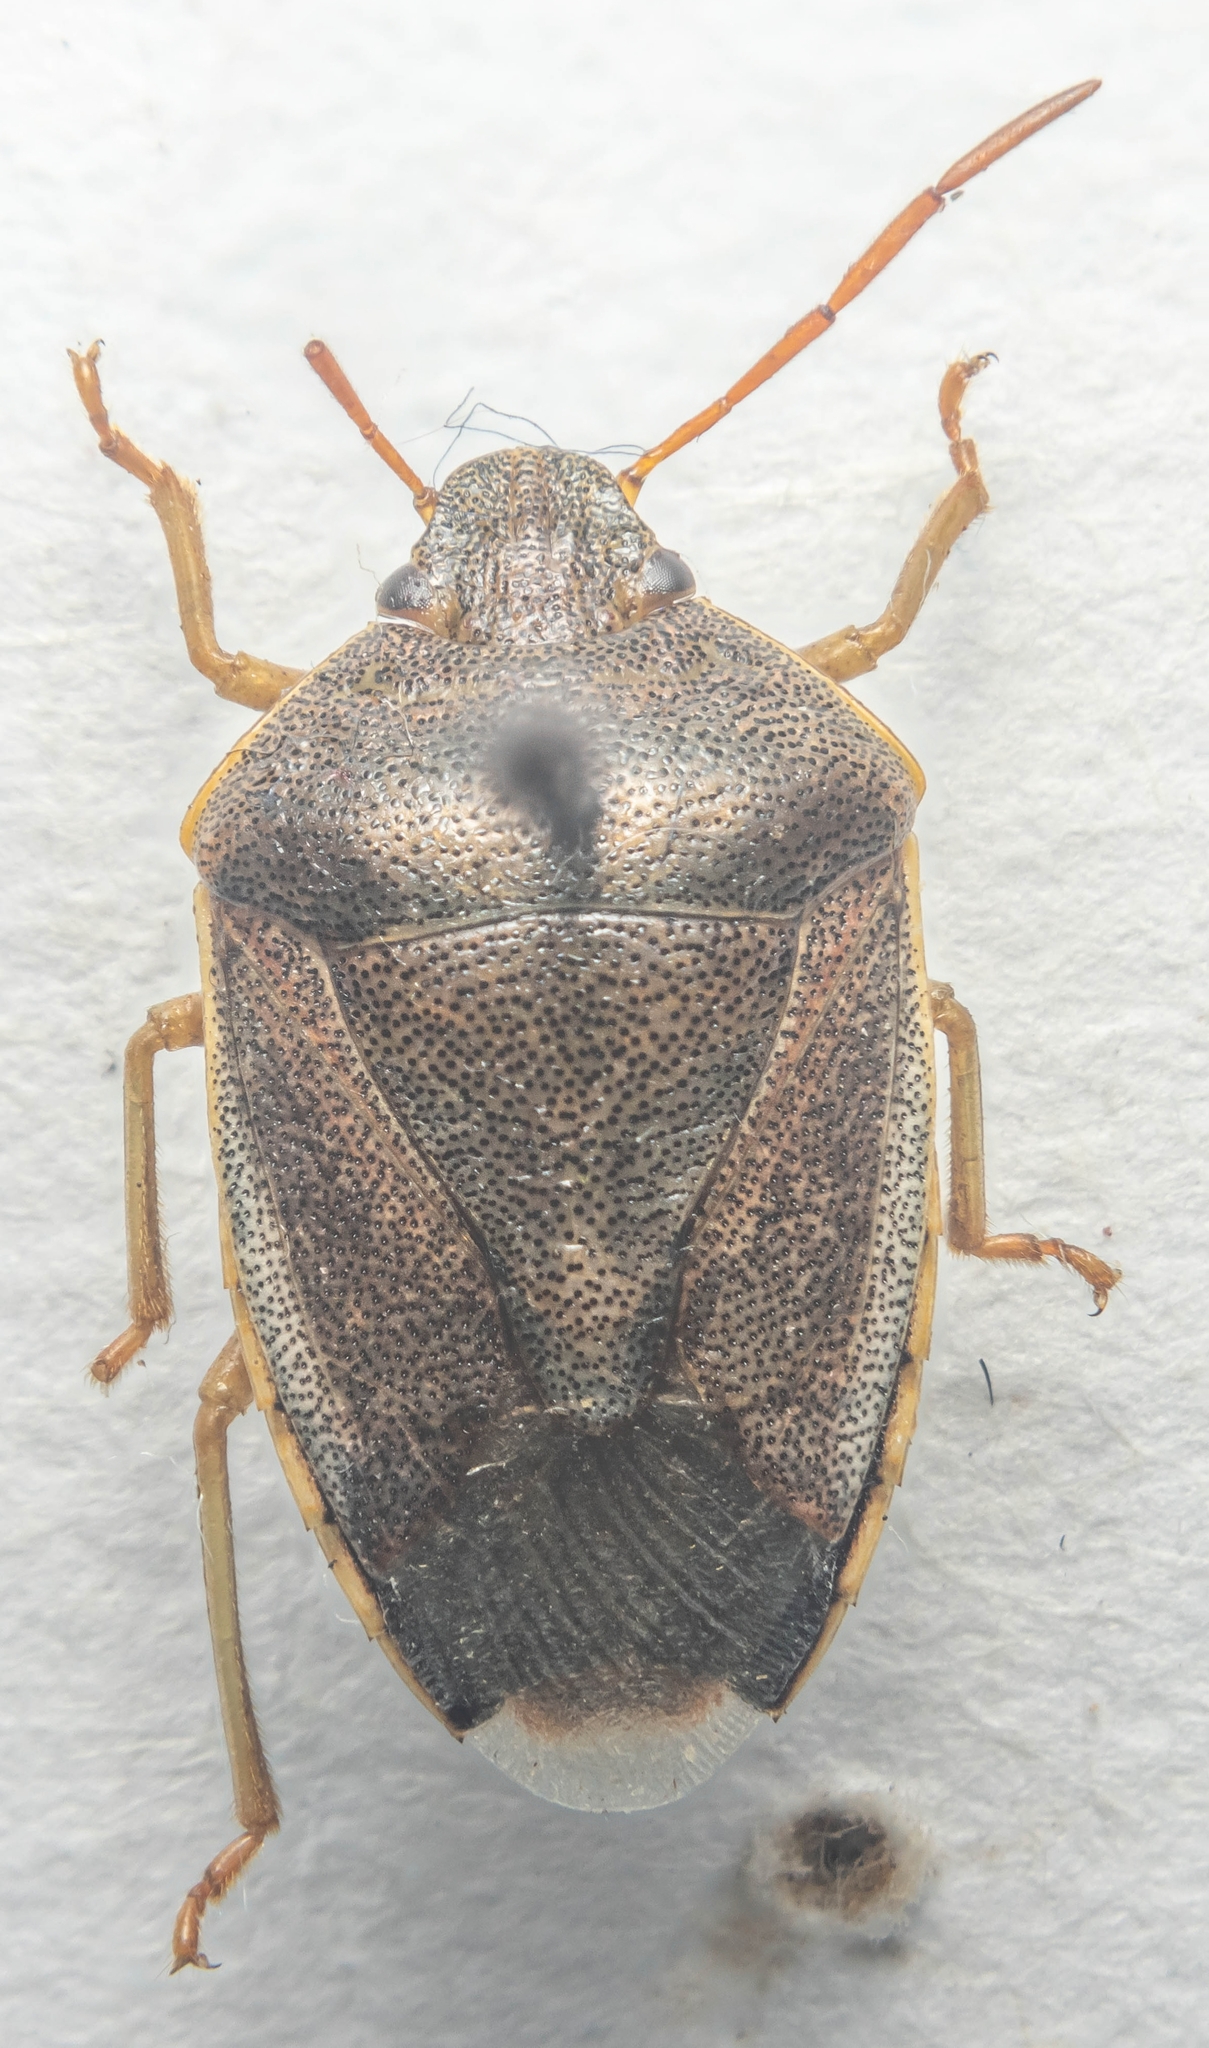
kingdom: Animalia
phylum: Arthropoda
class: Insecta
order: Hemiptera
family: Pentatomidae
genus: Piezodorus
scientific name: Piezodorus lituratus
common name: Stink bug
